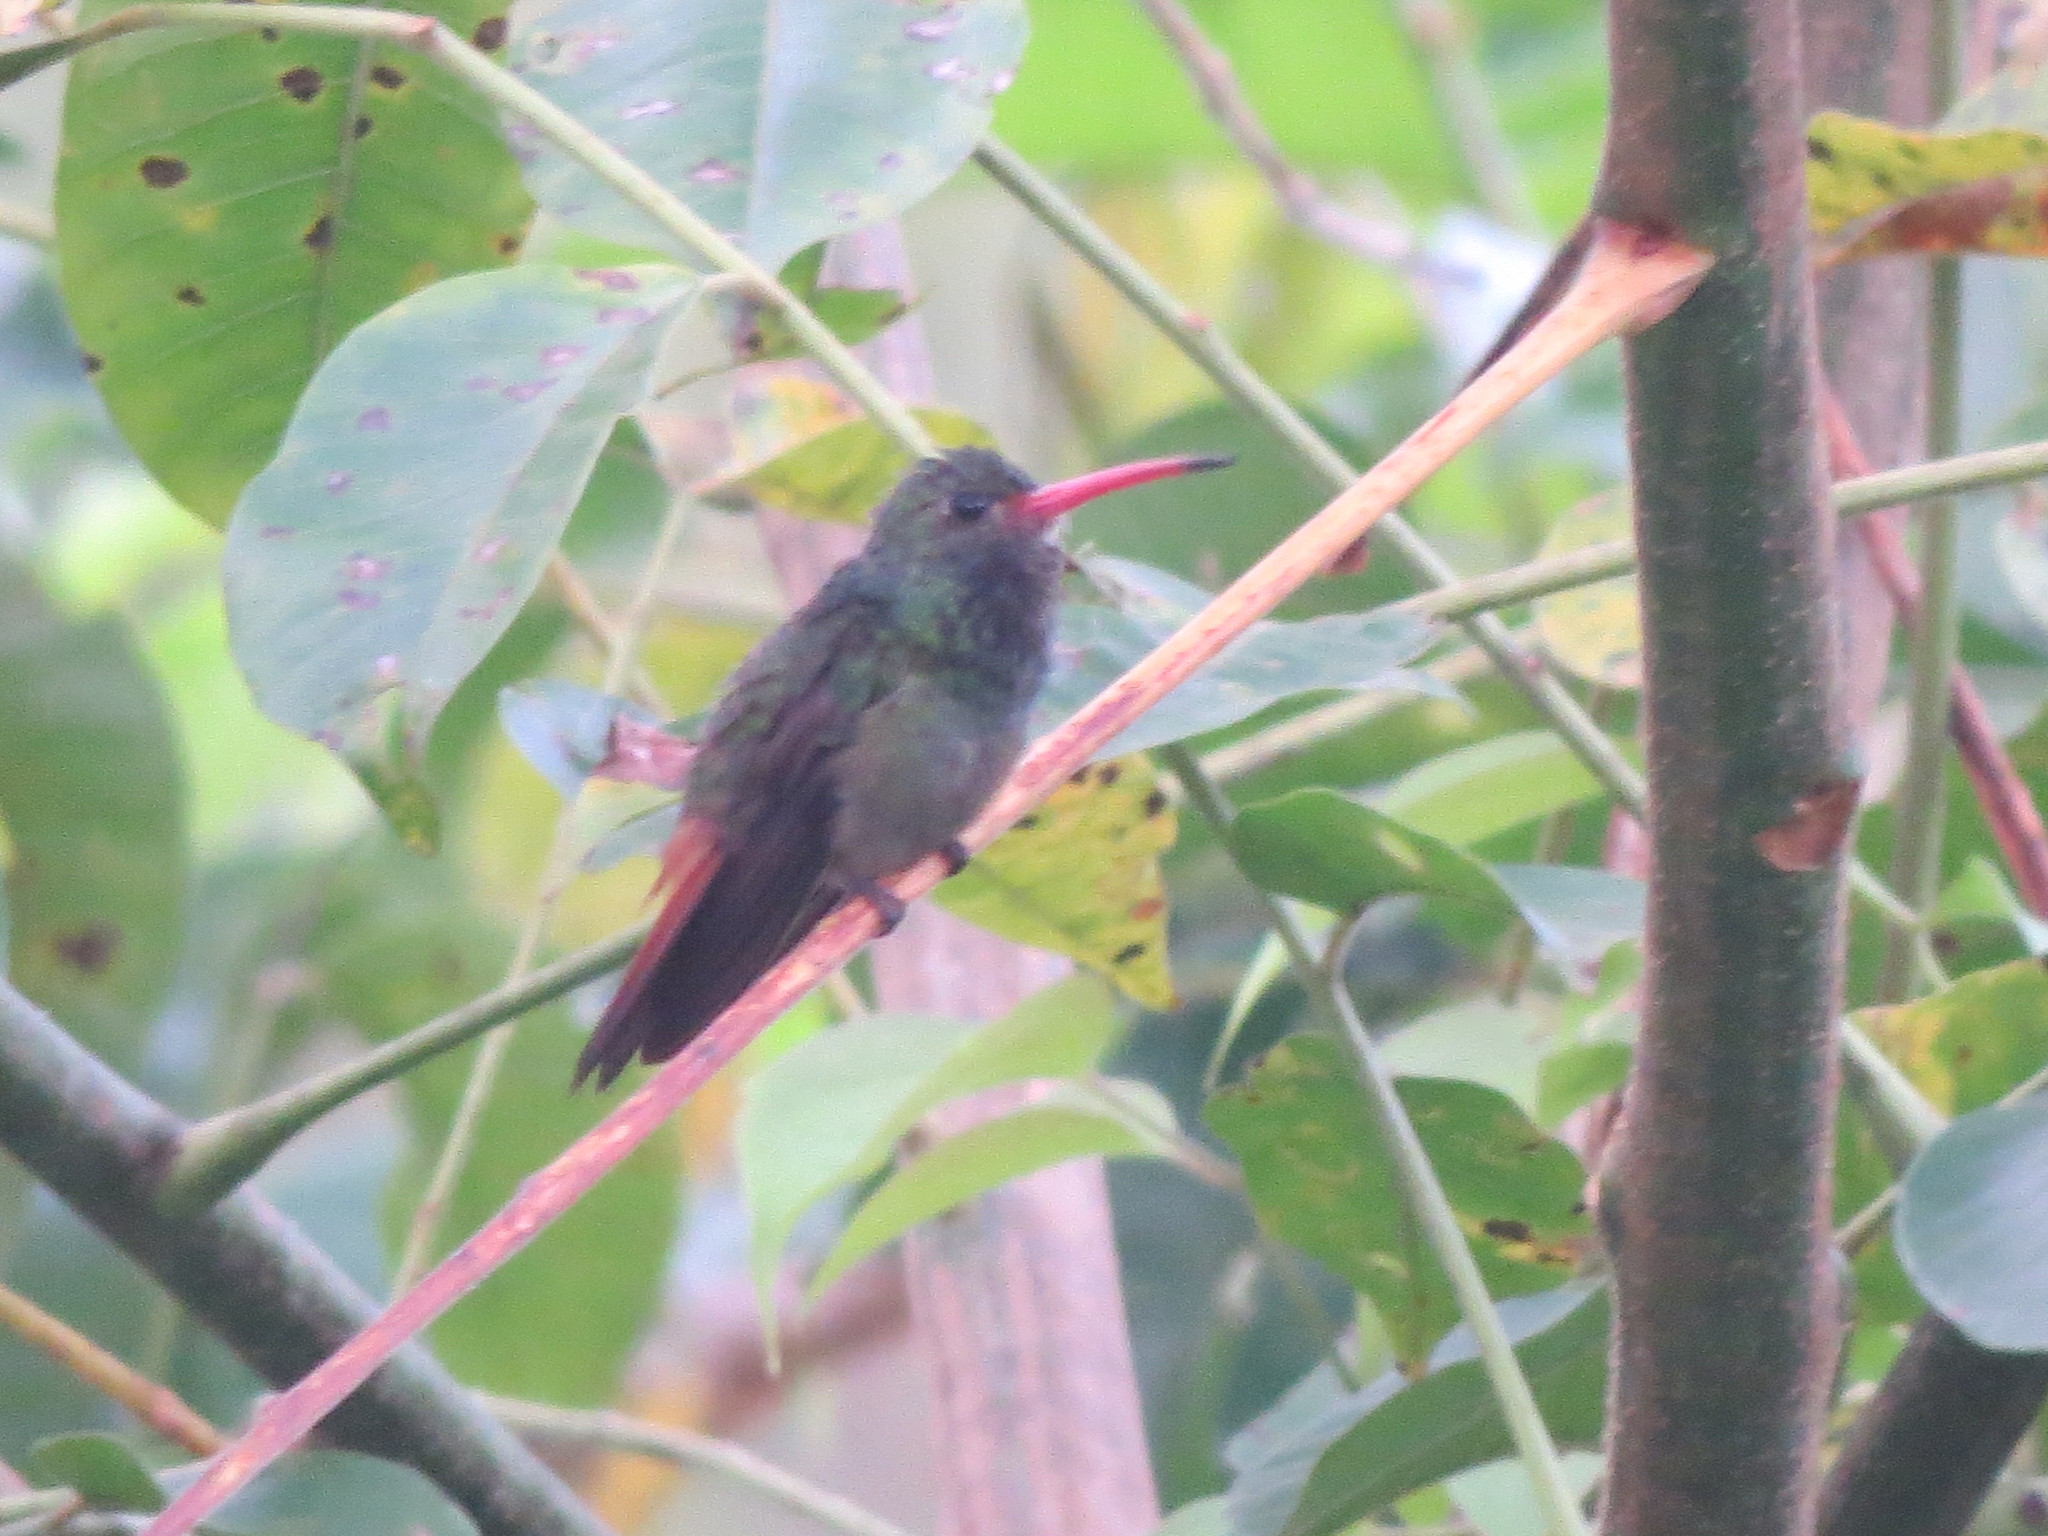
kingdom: Animalia
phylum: Chordata
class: Aves
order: Apodiformes
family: Trochilidae
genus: Amazilia
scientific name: Amazilia tzacatl
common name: Rufous-tailed hummingbird
